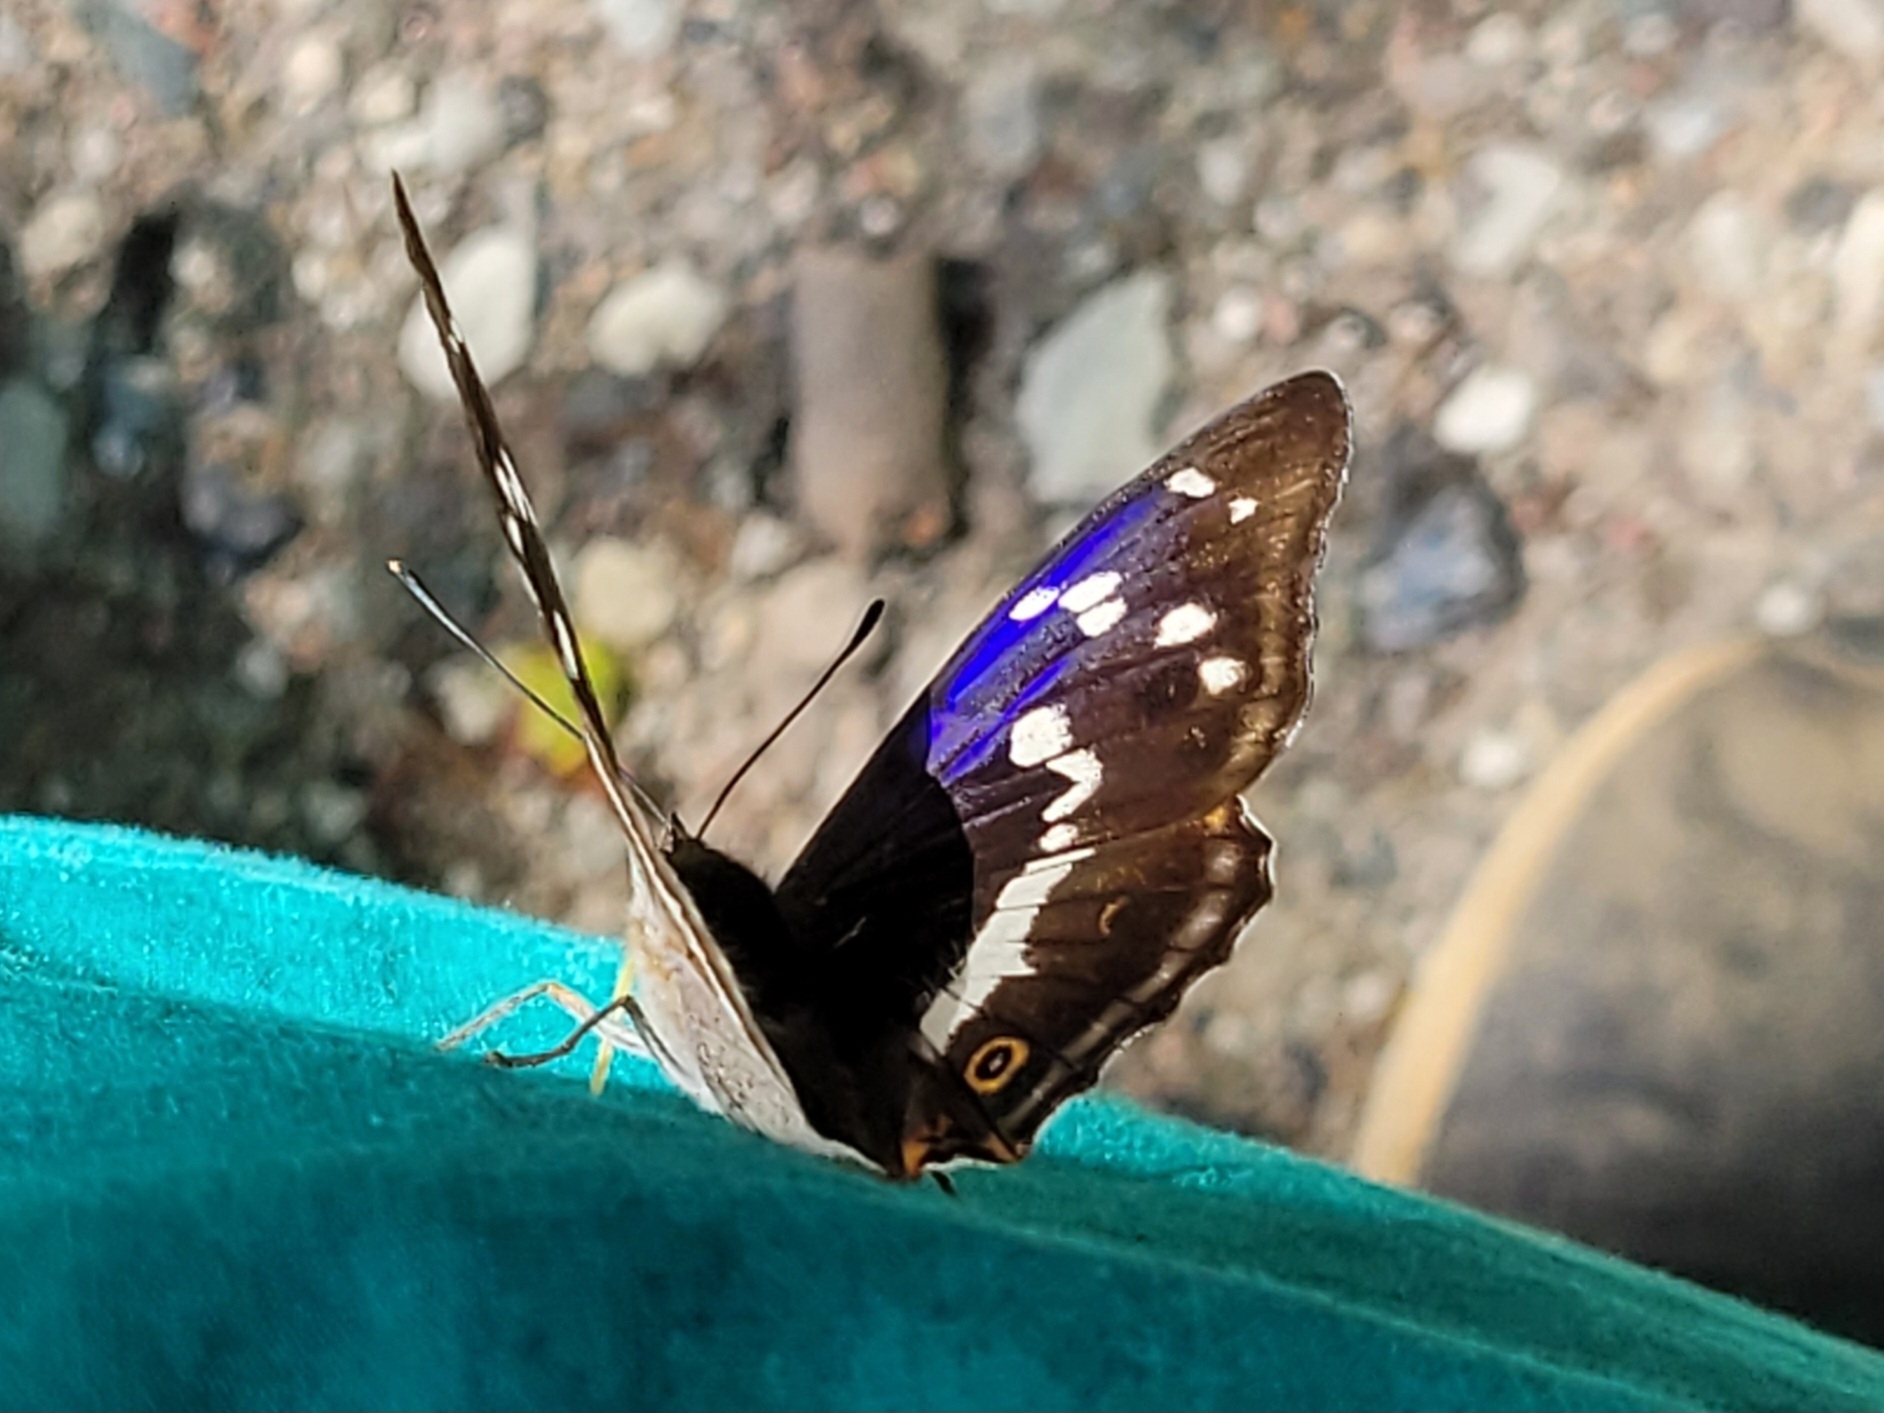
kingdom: Animalia
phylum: Arthropoda
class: Insecta
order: Lepidoptera
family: Nymphalidae
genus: Apatura
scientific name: Apatura iris
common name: Purple emperor
